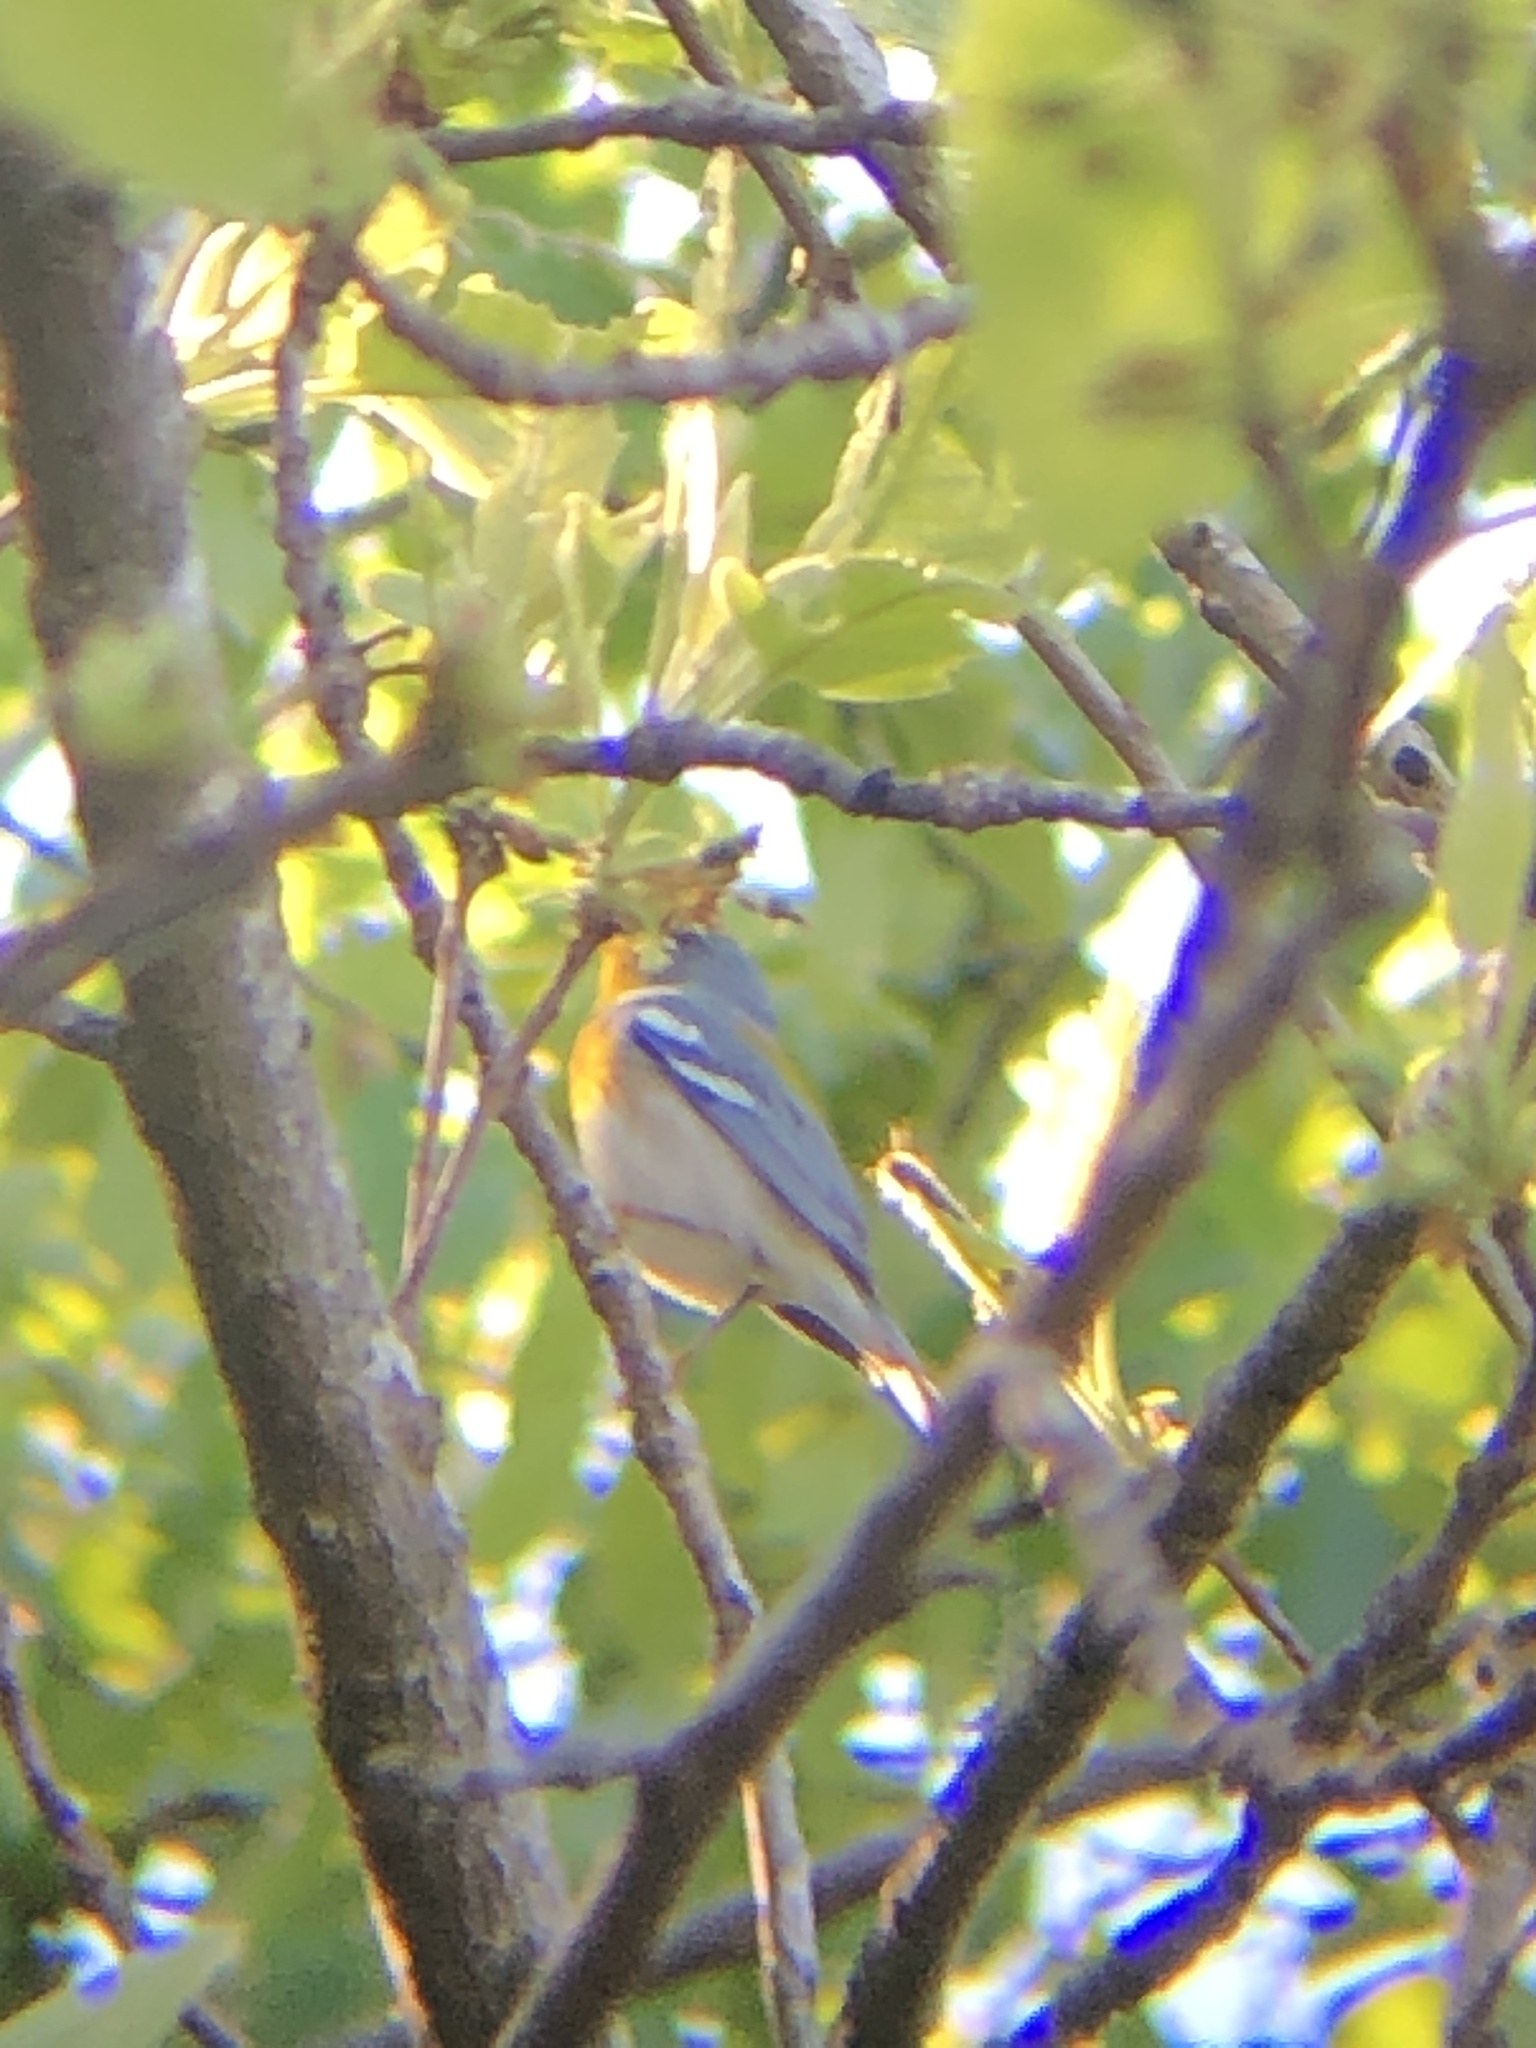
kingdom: Animalia
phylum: Chordata
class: Aves
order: Passeriformes
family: Parulidae
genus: Setophaga
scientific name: Setophaga americana
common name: Northern parula
